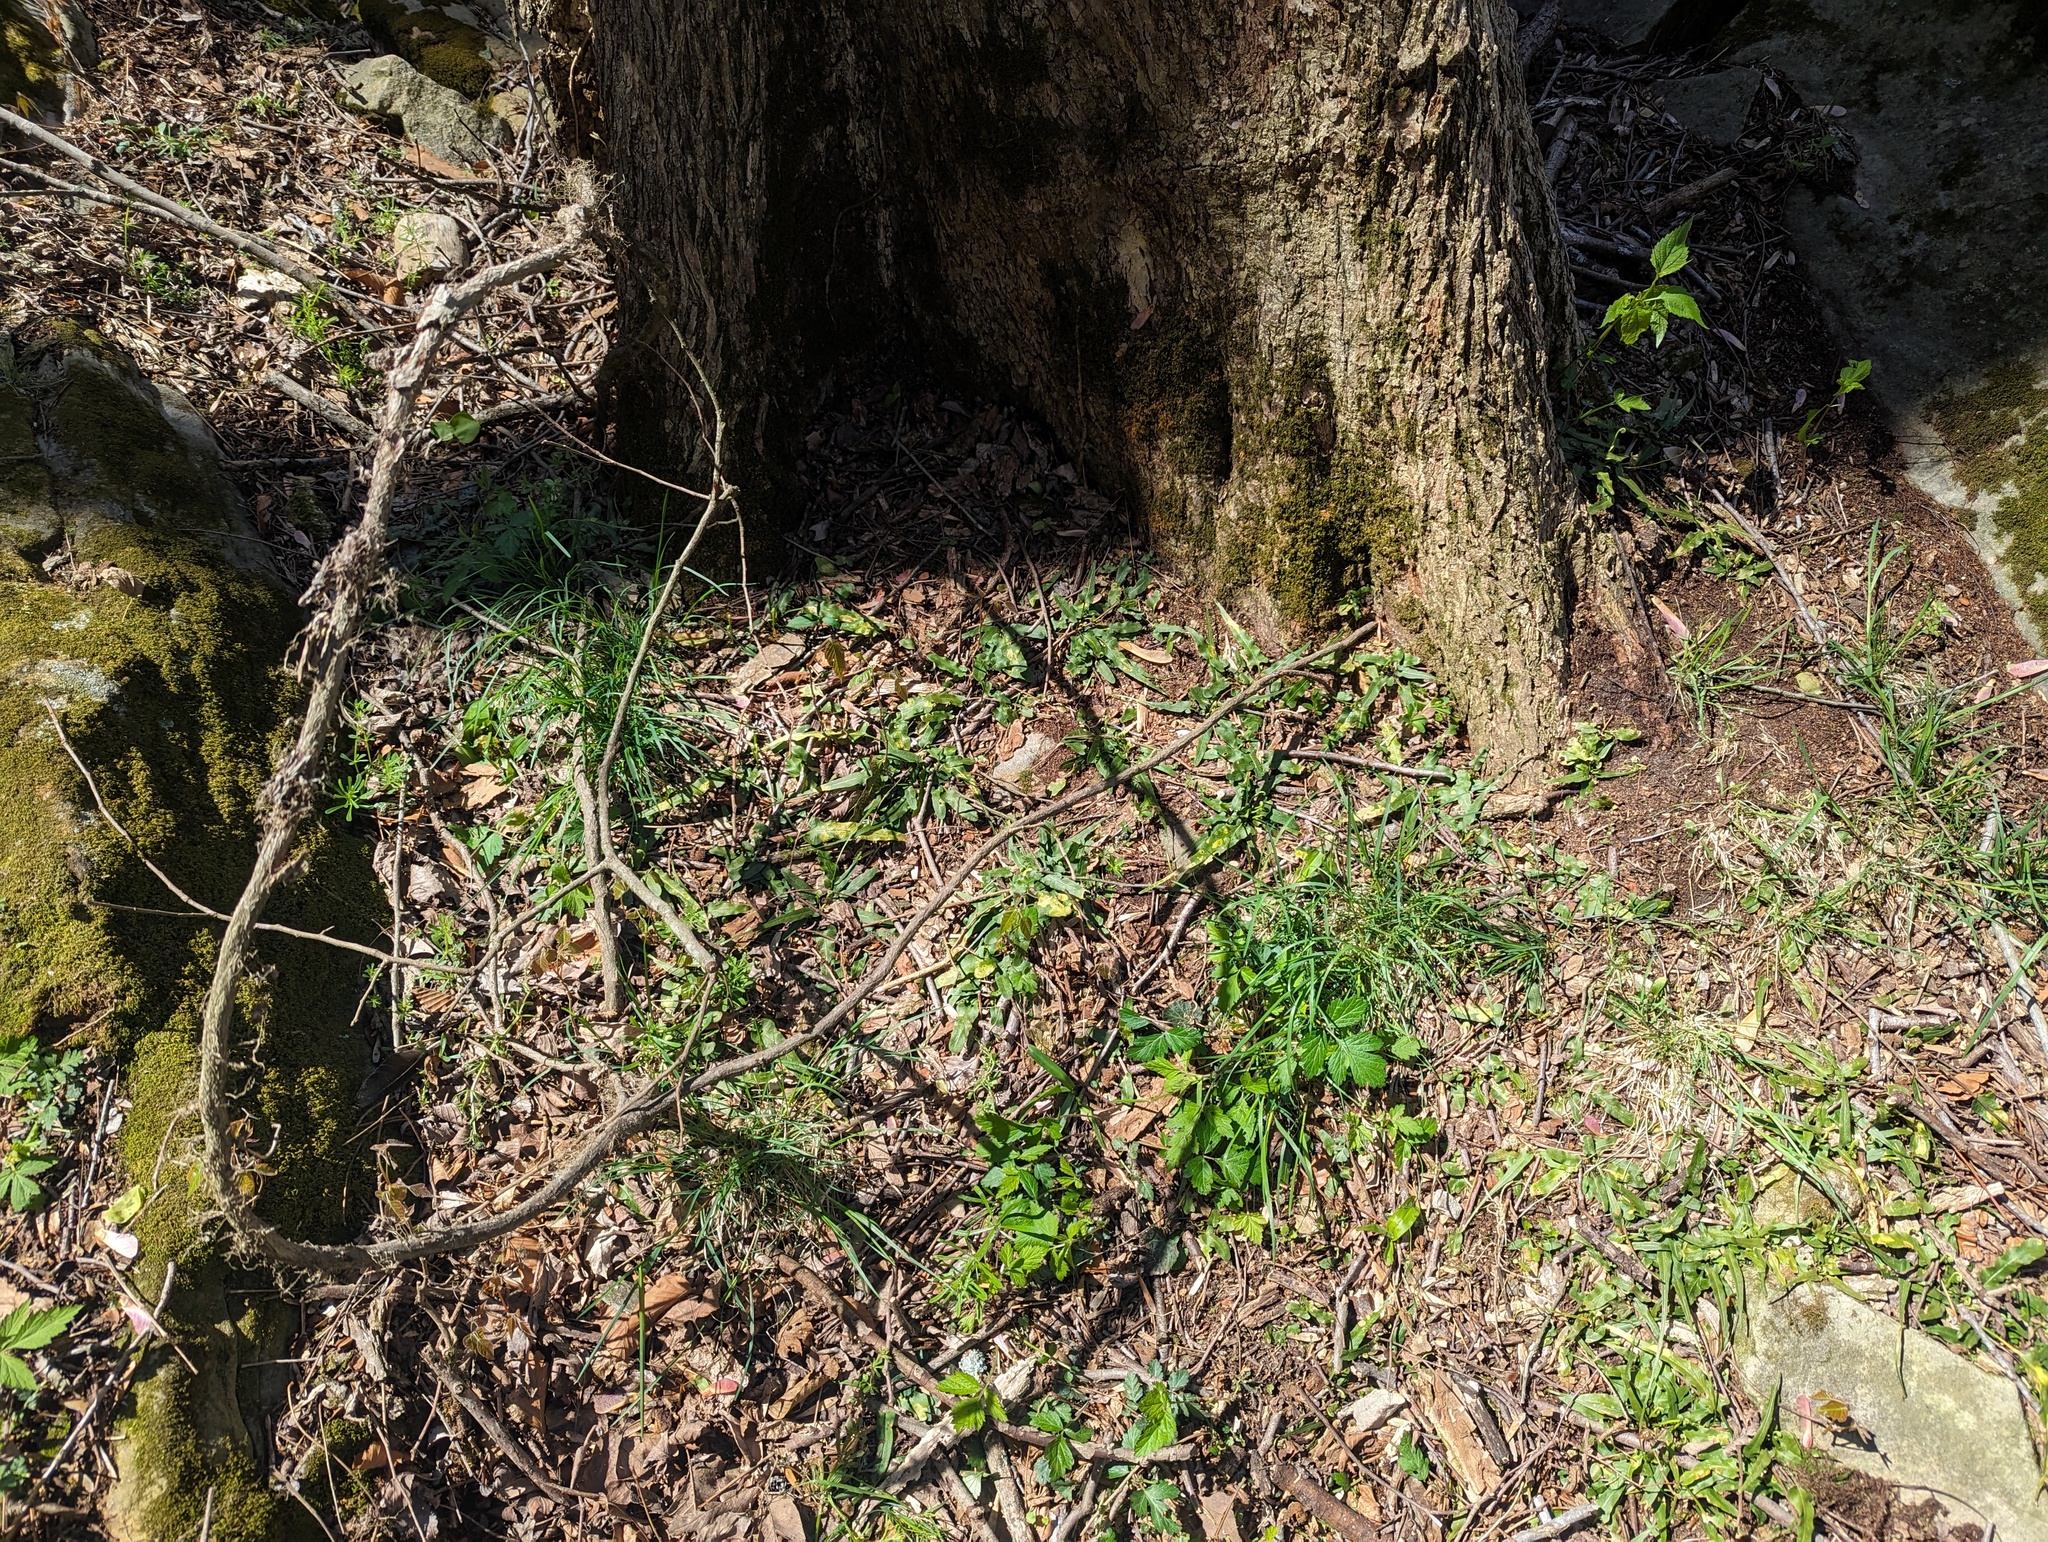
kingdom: Plantae
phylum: Tracheophyta
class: Polypodiopsida
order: Polypodiales
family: Aspleniaceae
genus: Asplenium
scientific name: Asplenium rhizophyllum
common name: Walking fern
